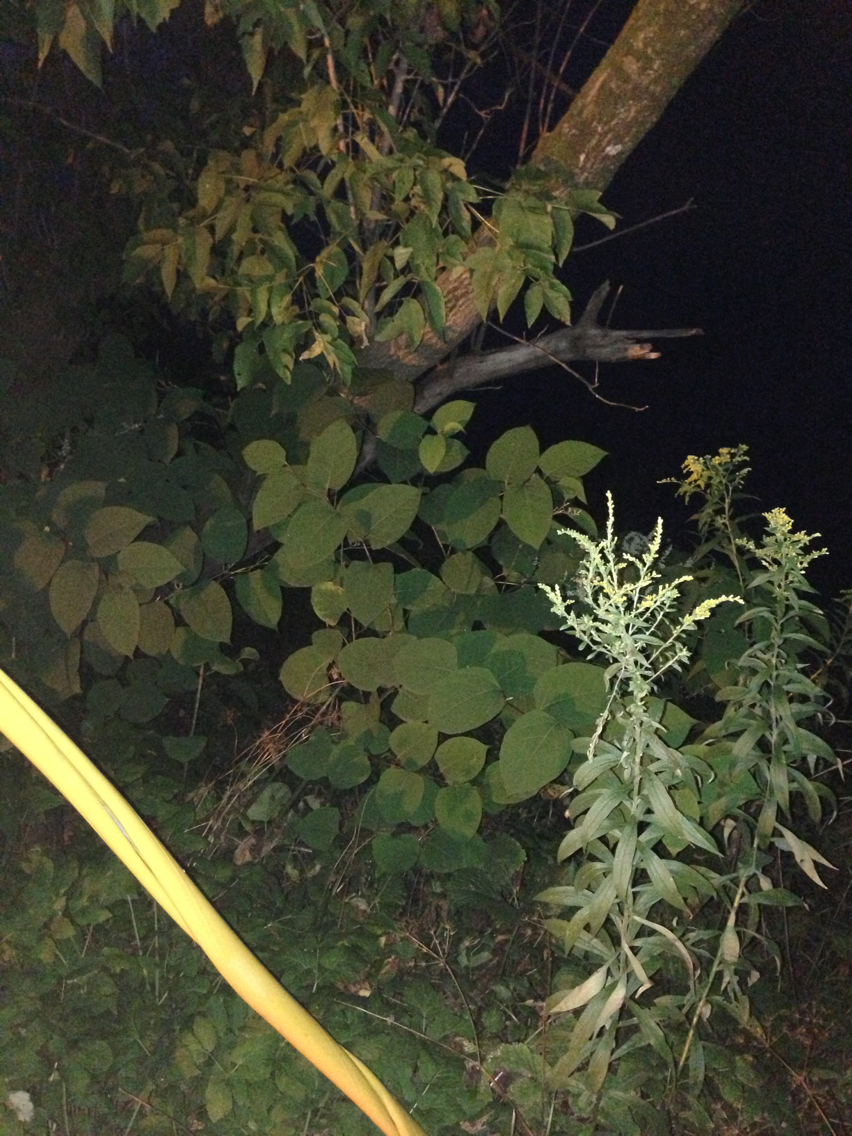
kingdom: Plantae
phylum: Tracheophyta
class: Magnoliopsida
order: Caryophyllales
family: Polygonaceae
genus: Reynoutria
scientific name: Reynoutria japonica
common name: Japanese knotweed
